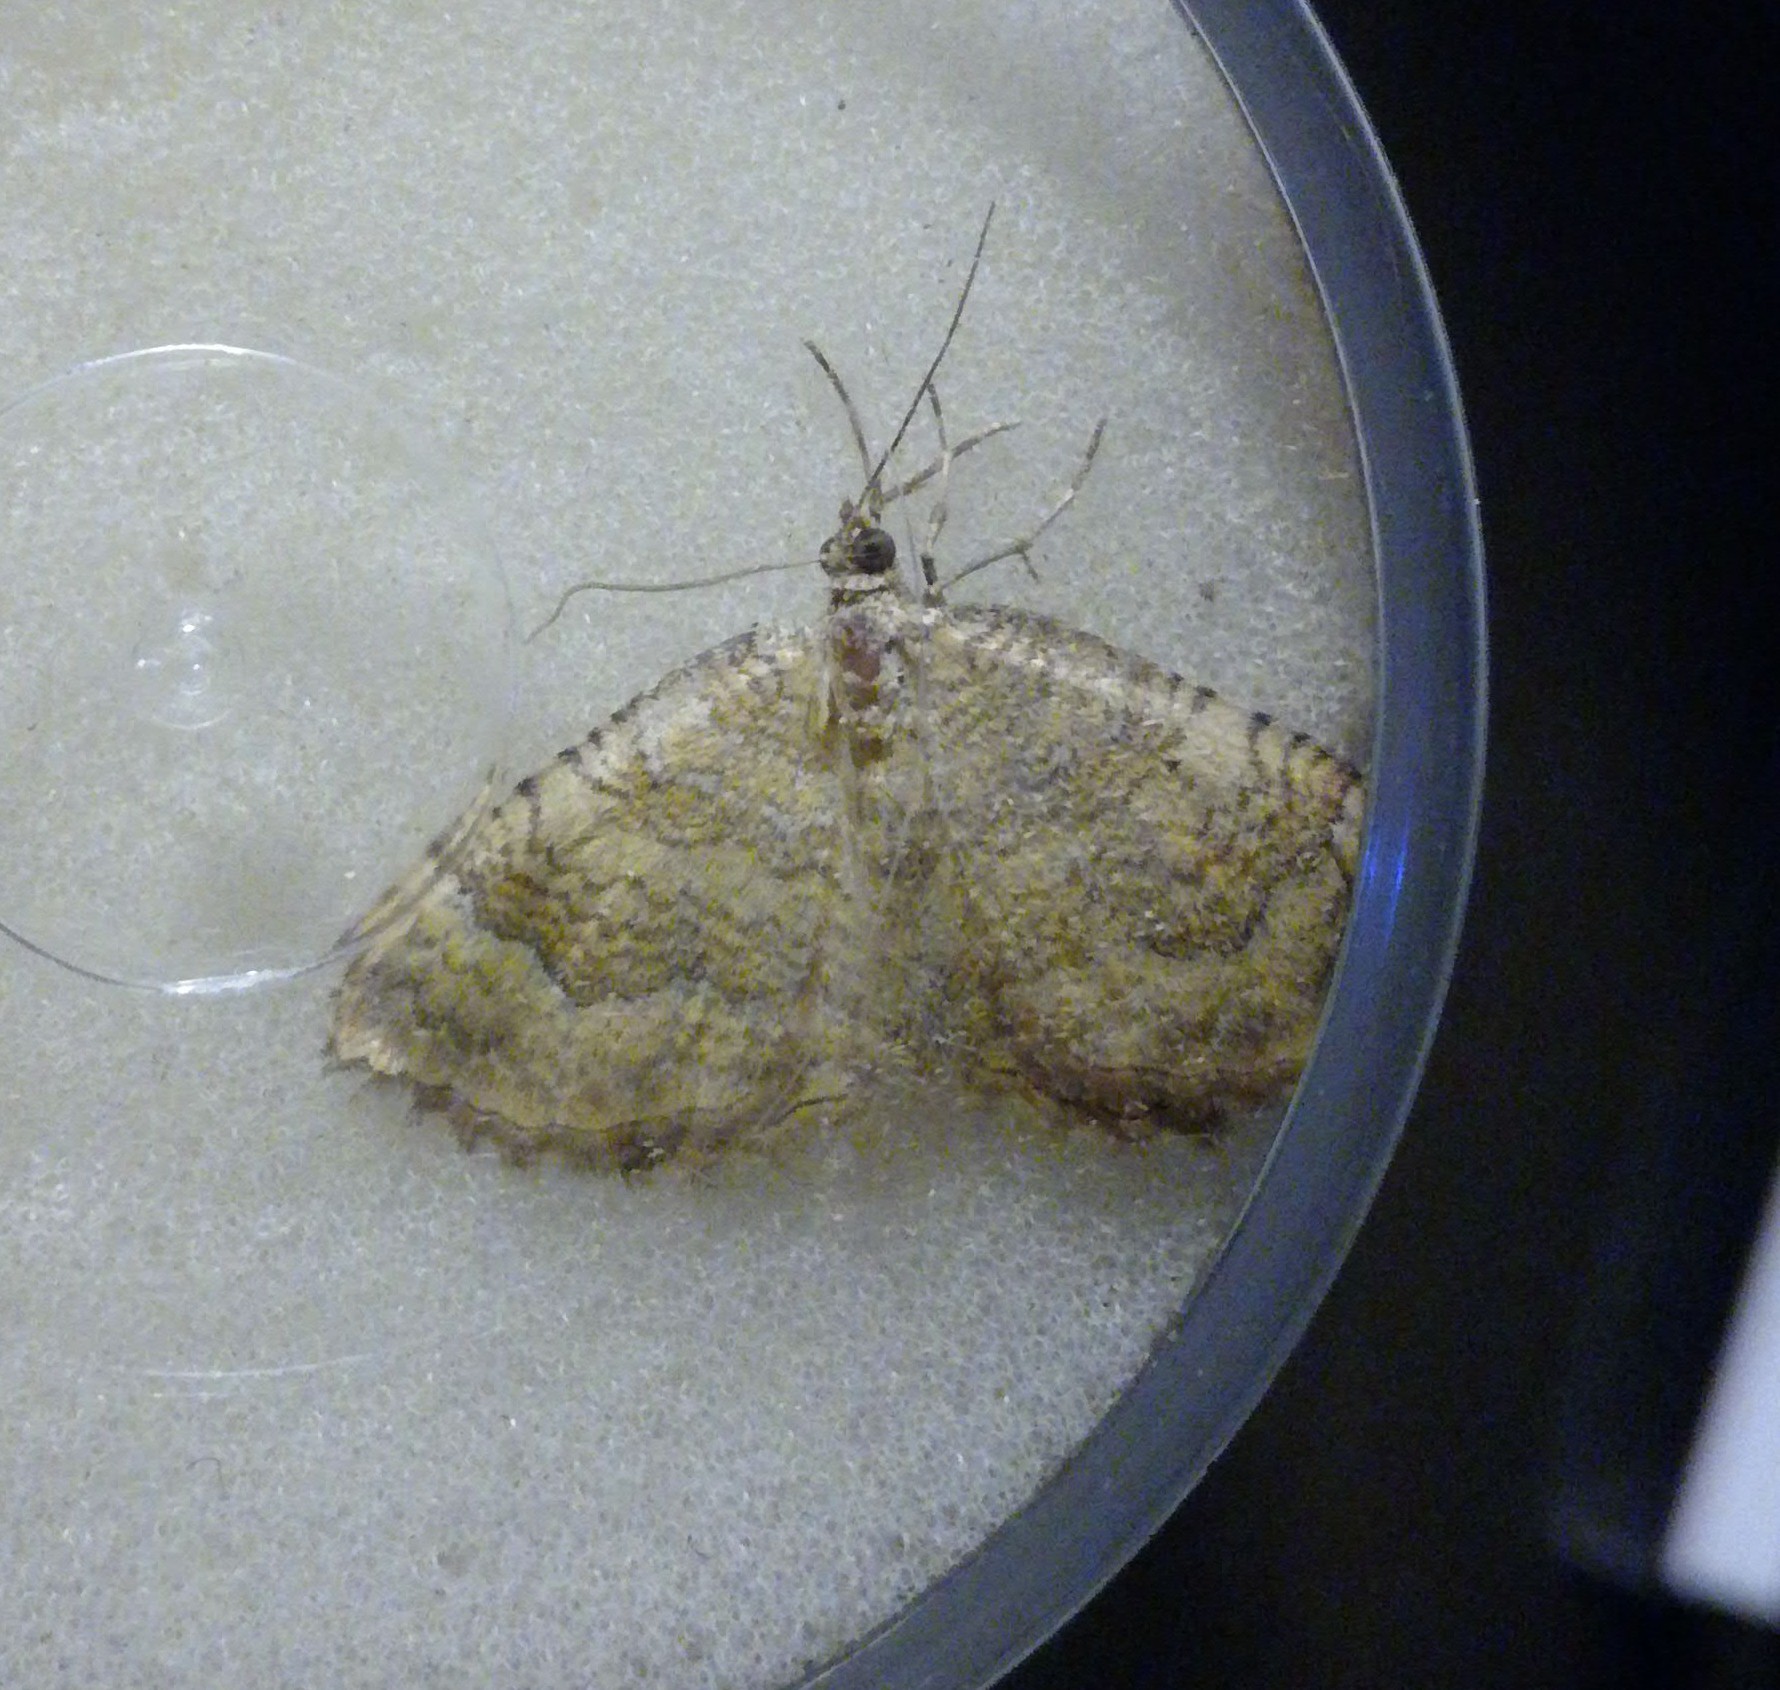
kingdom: Animalia
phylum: Arthropoda
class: Insecta
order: Lepidoptera
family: Geometridae
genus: Camptogramma
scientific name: Camptogramma bilineata
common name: Yellow shell
